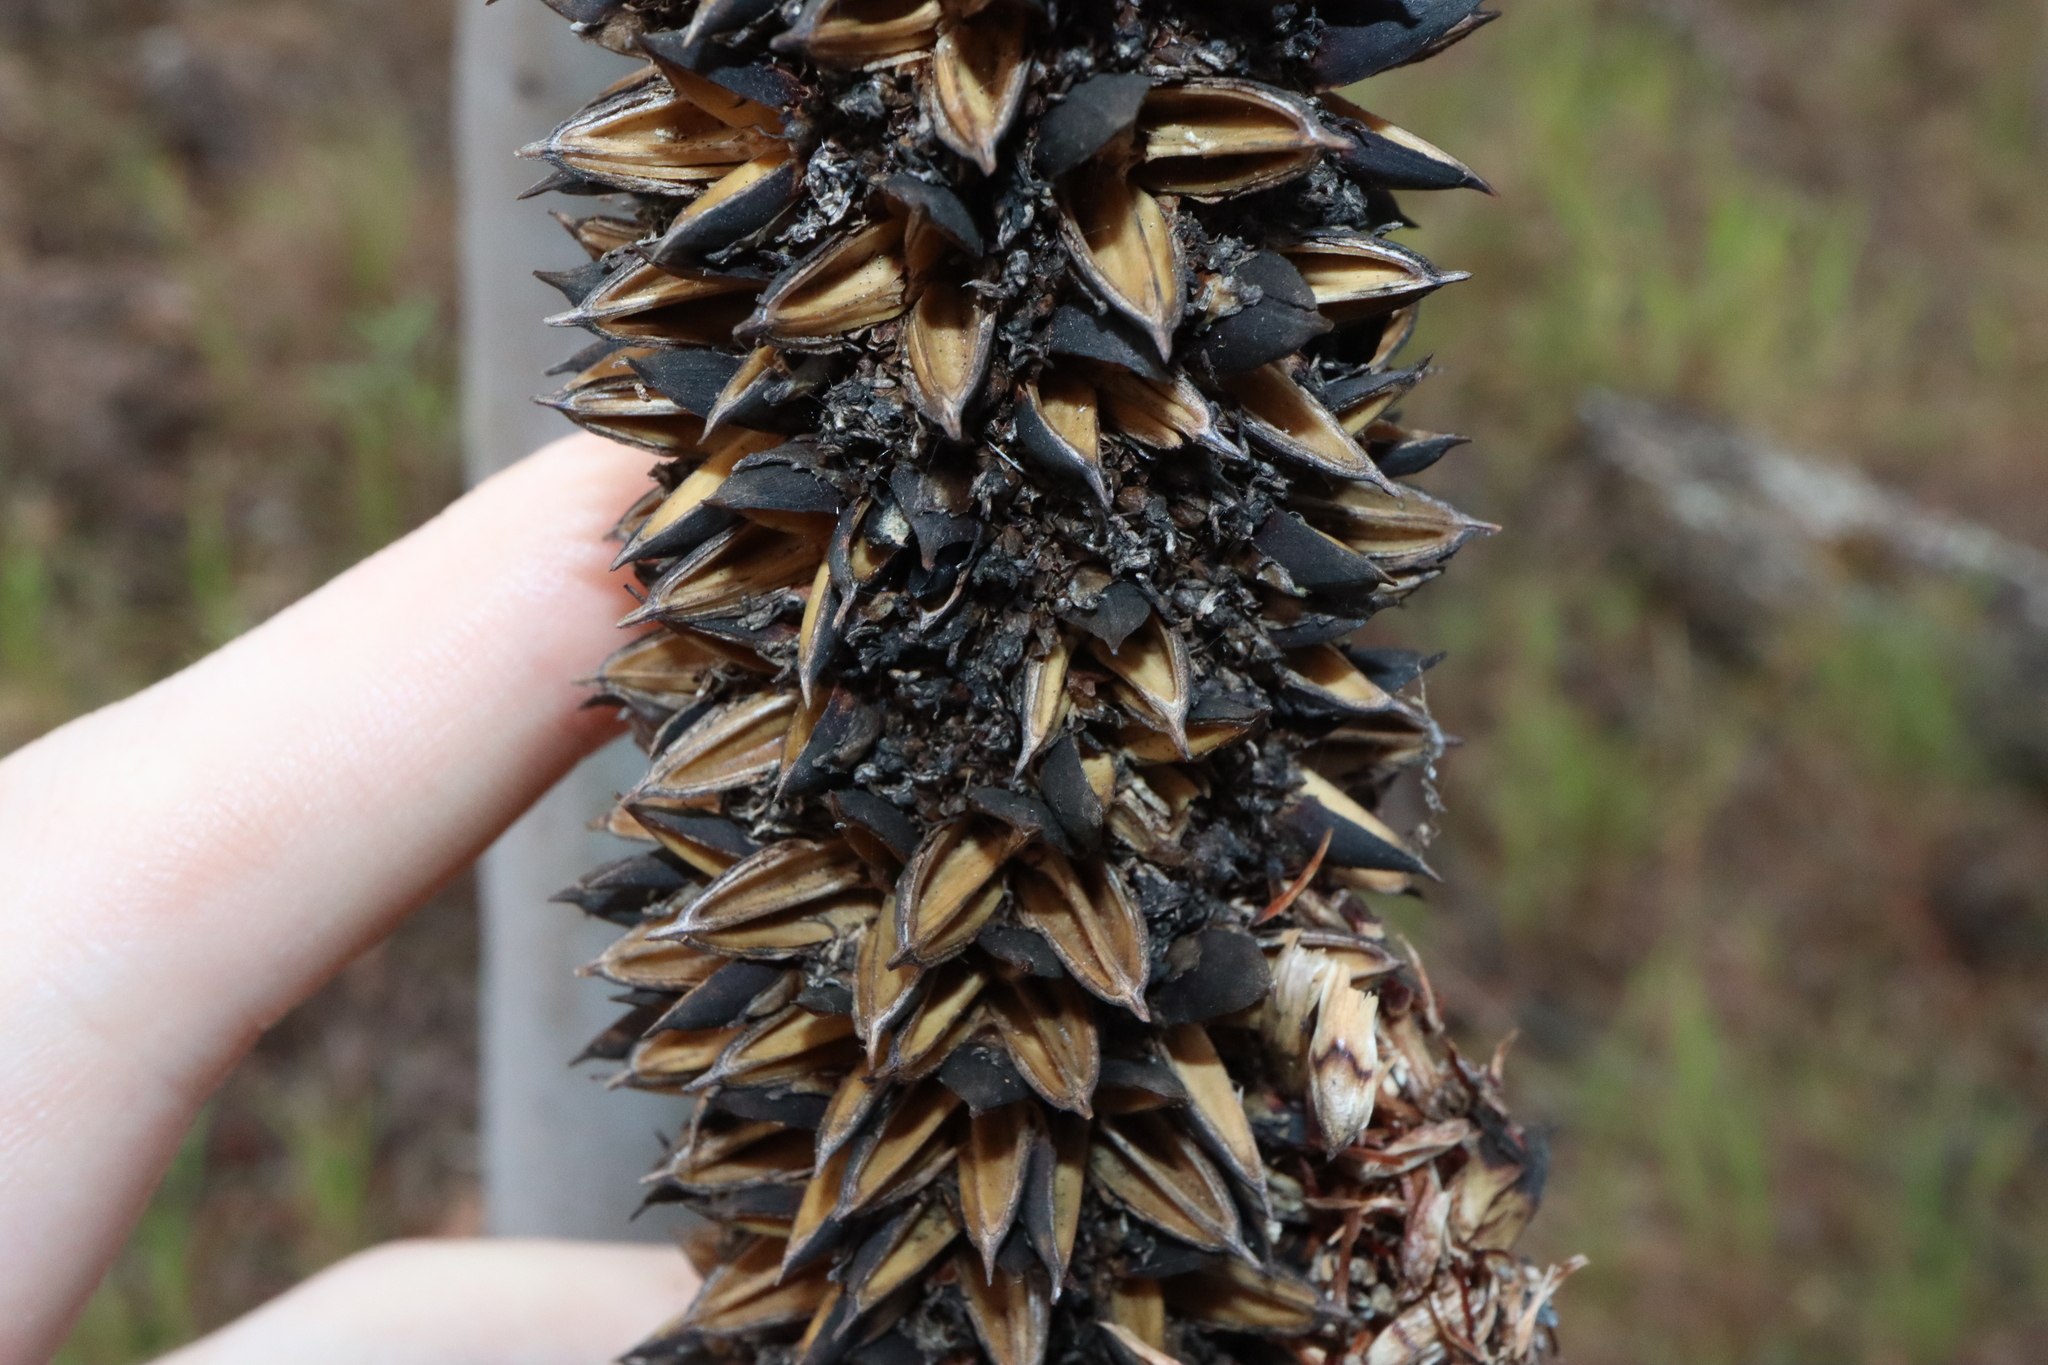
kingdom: Plantae
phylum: Tracheophyta
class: Liliopsida
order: Asparagales
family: Asphodelaceae
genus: Xanthorrhoea
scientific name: Xanthorrhoea johnsonii
